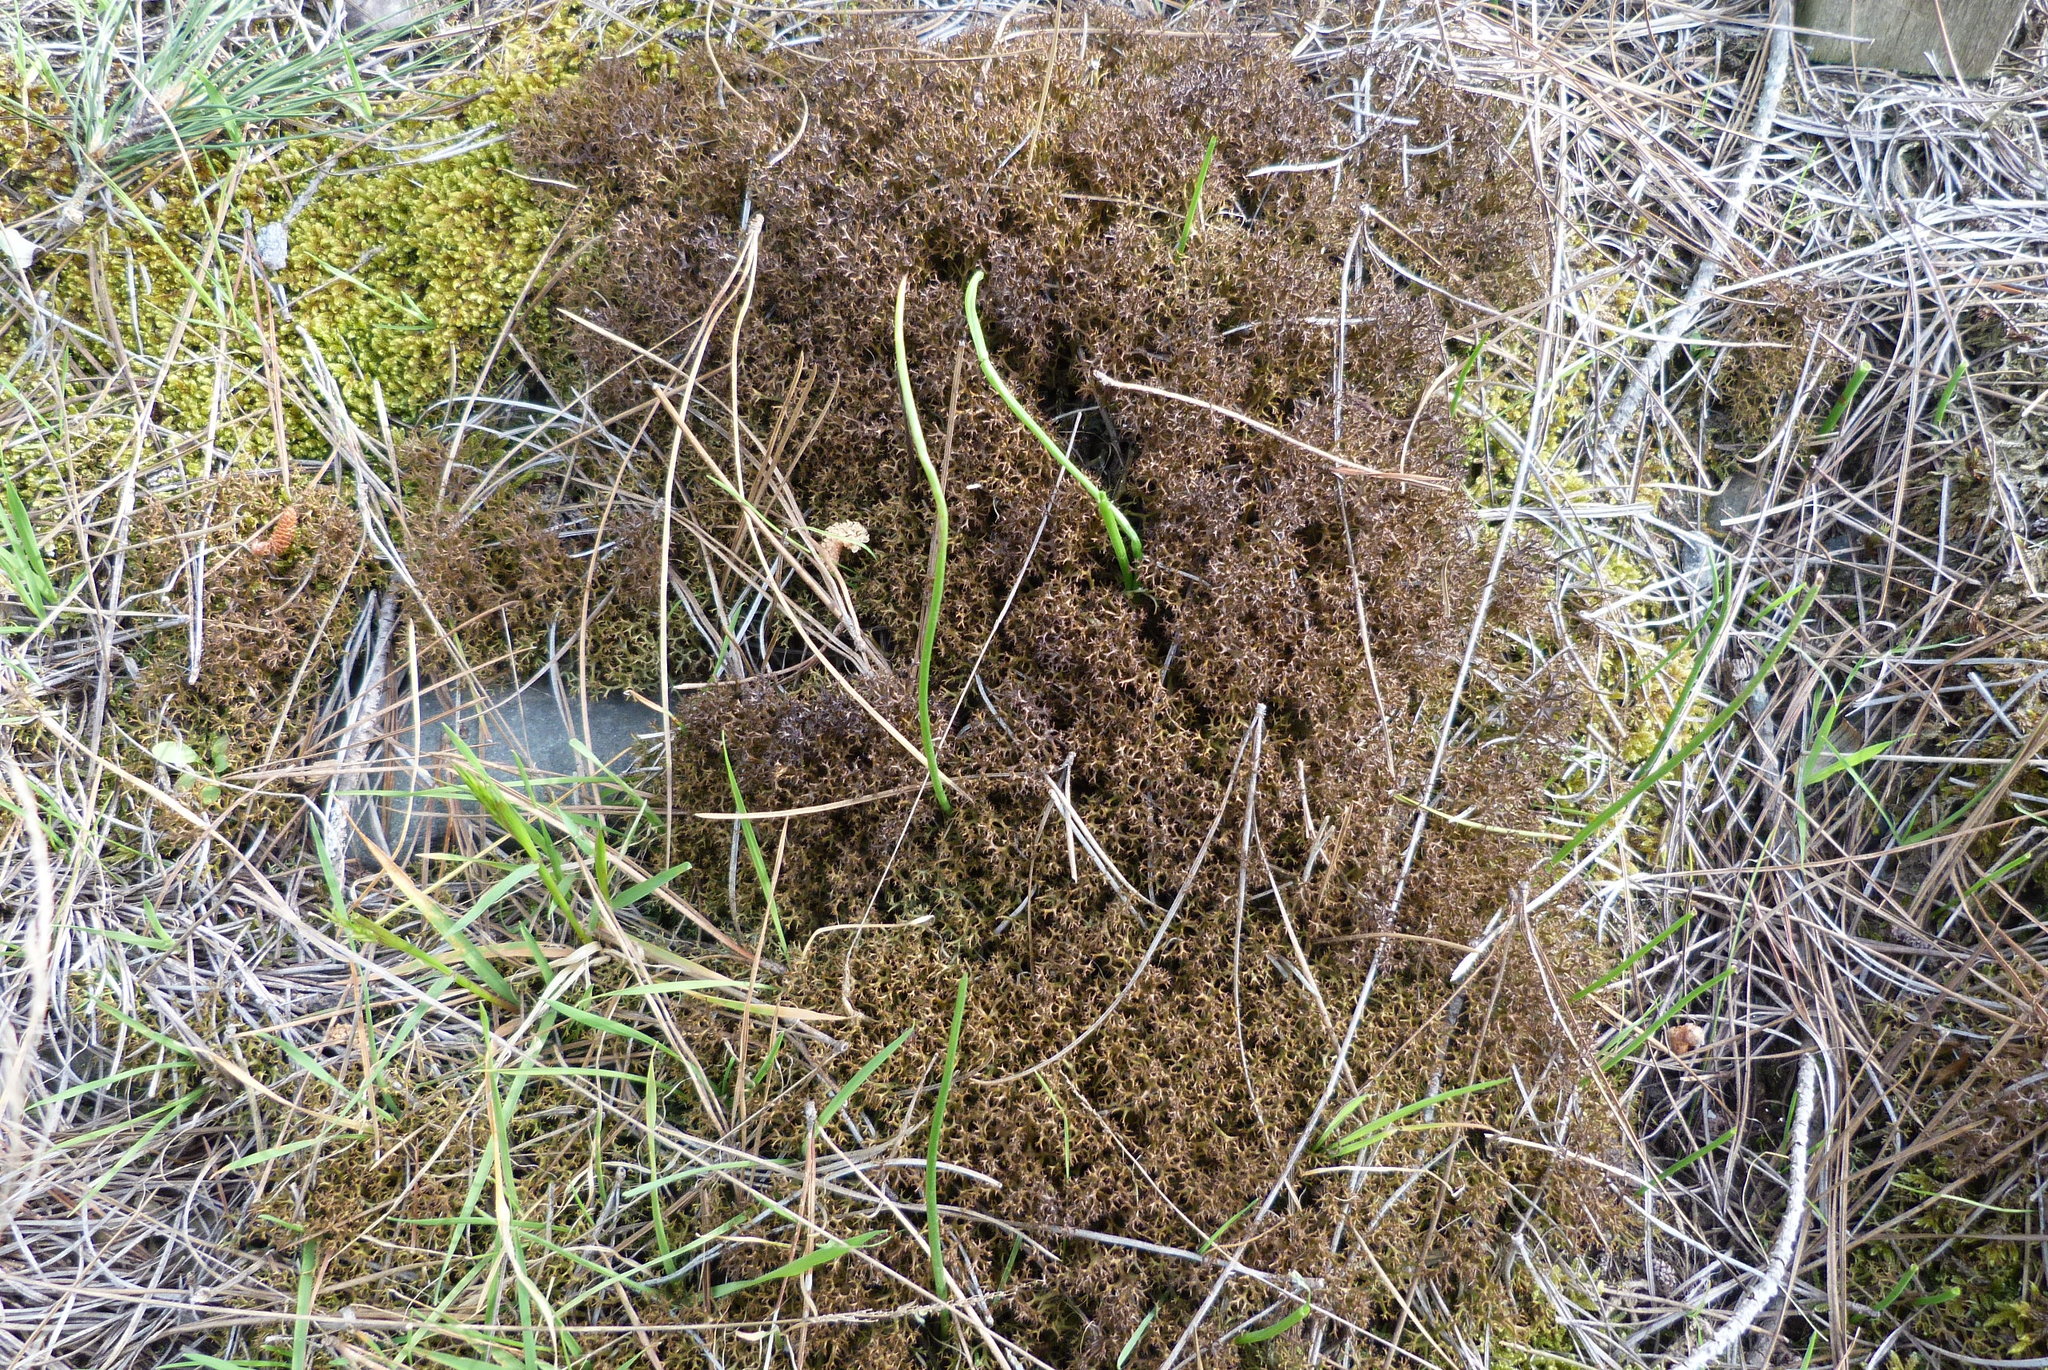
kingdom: Fungi
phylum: Ascomycota
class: Lecanoromycetes
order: Lecanorales
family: Cladoniaceae
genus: Cladia
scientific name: Cladia aggregata
